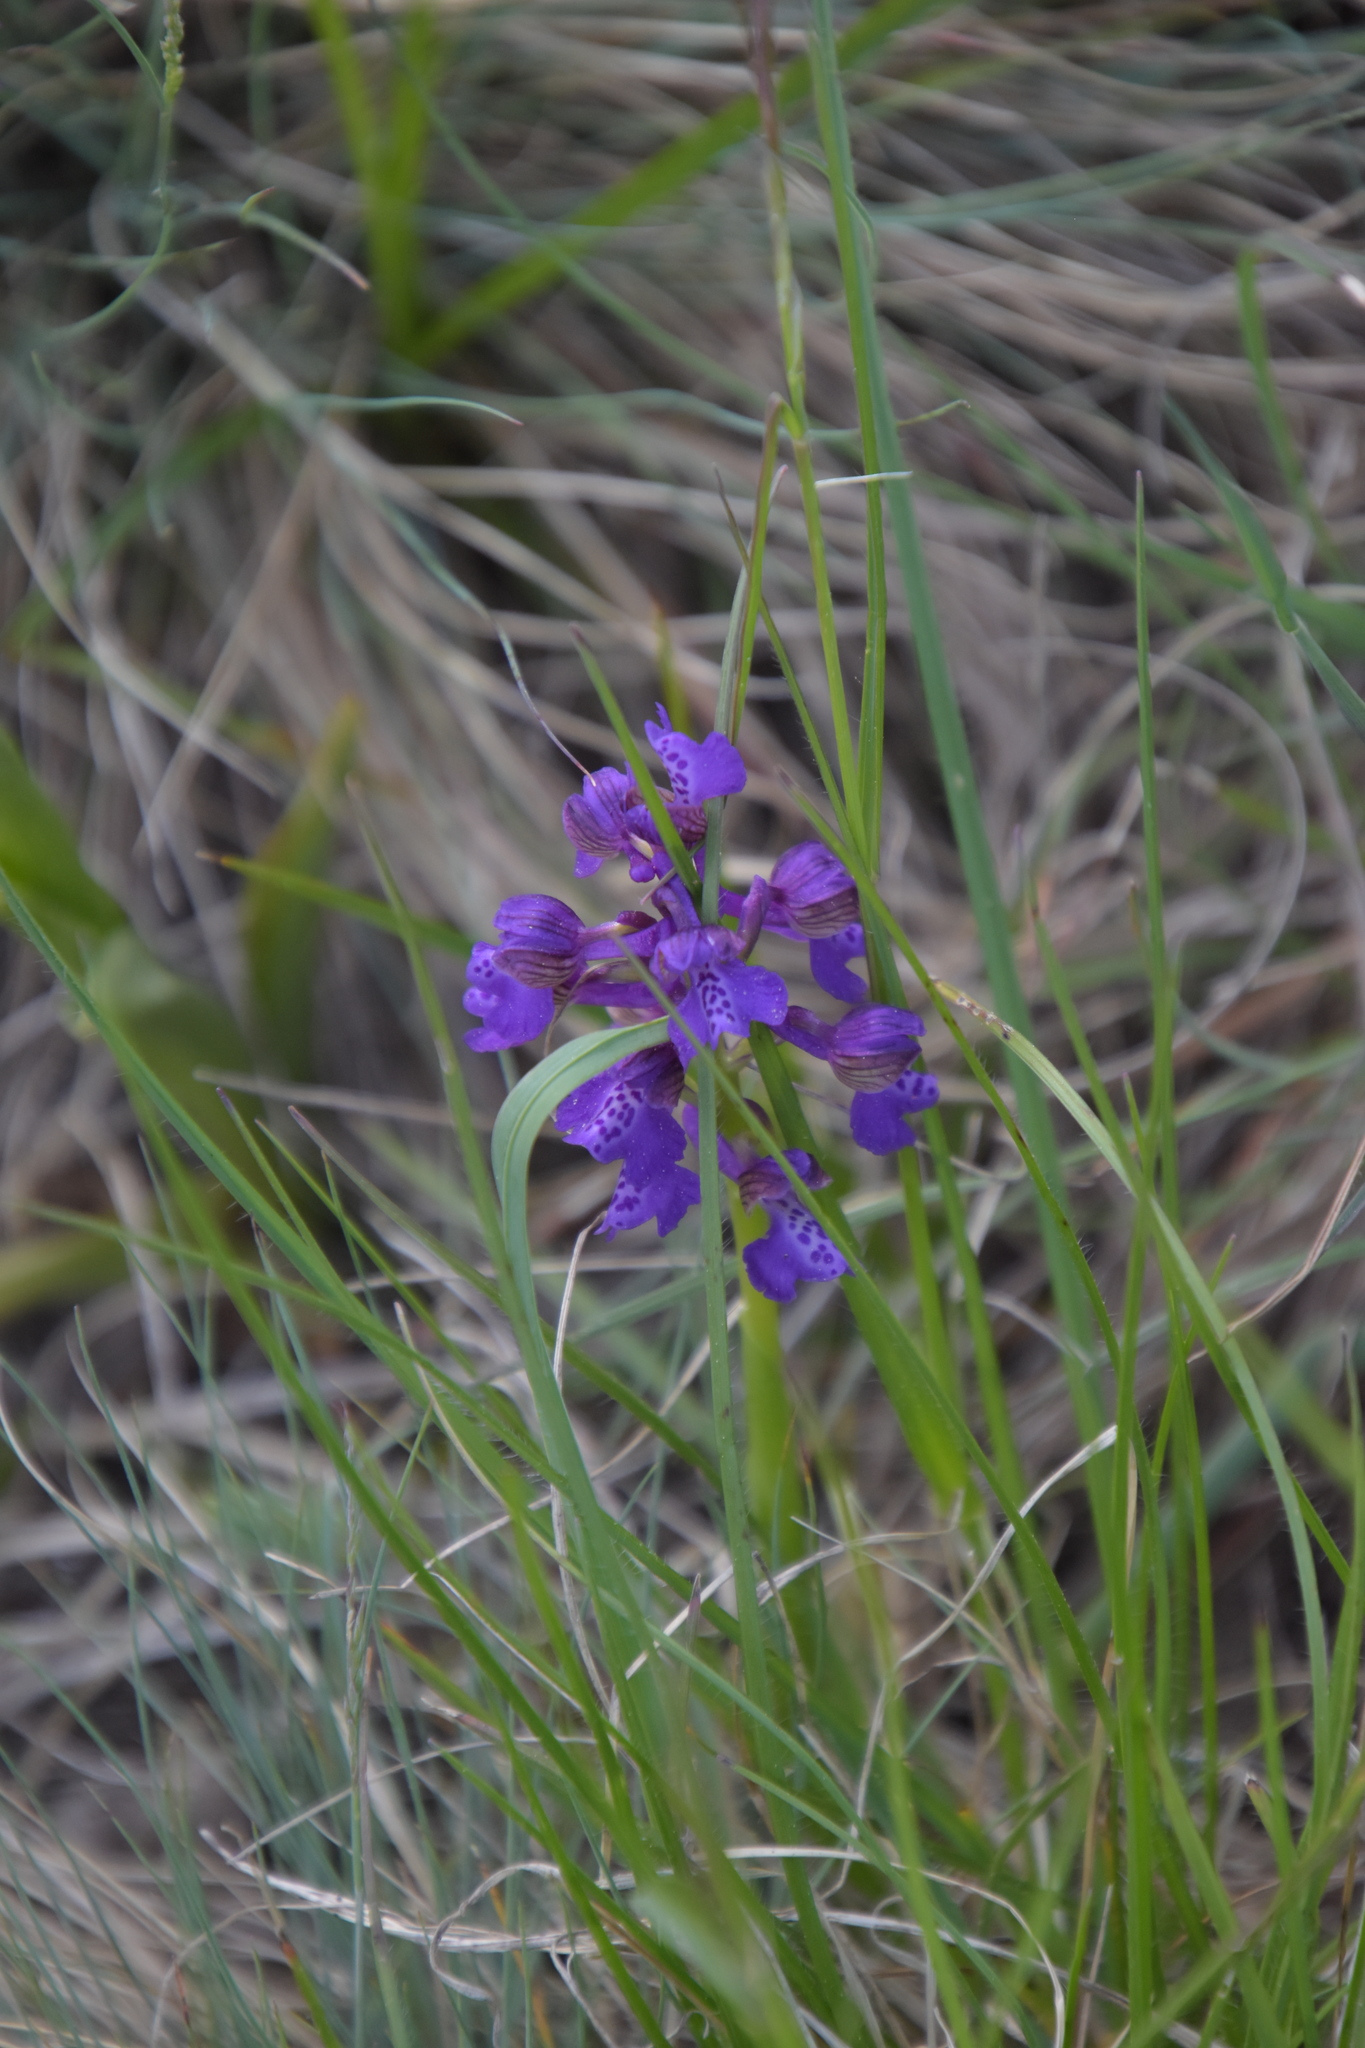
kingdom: Plantae
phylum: Tracheophyta
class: Liliopsida
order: Asparagales
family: Orchidaceae
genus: Anacamptis
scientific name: Anacamptis morio
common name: Green-winged orchid
